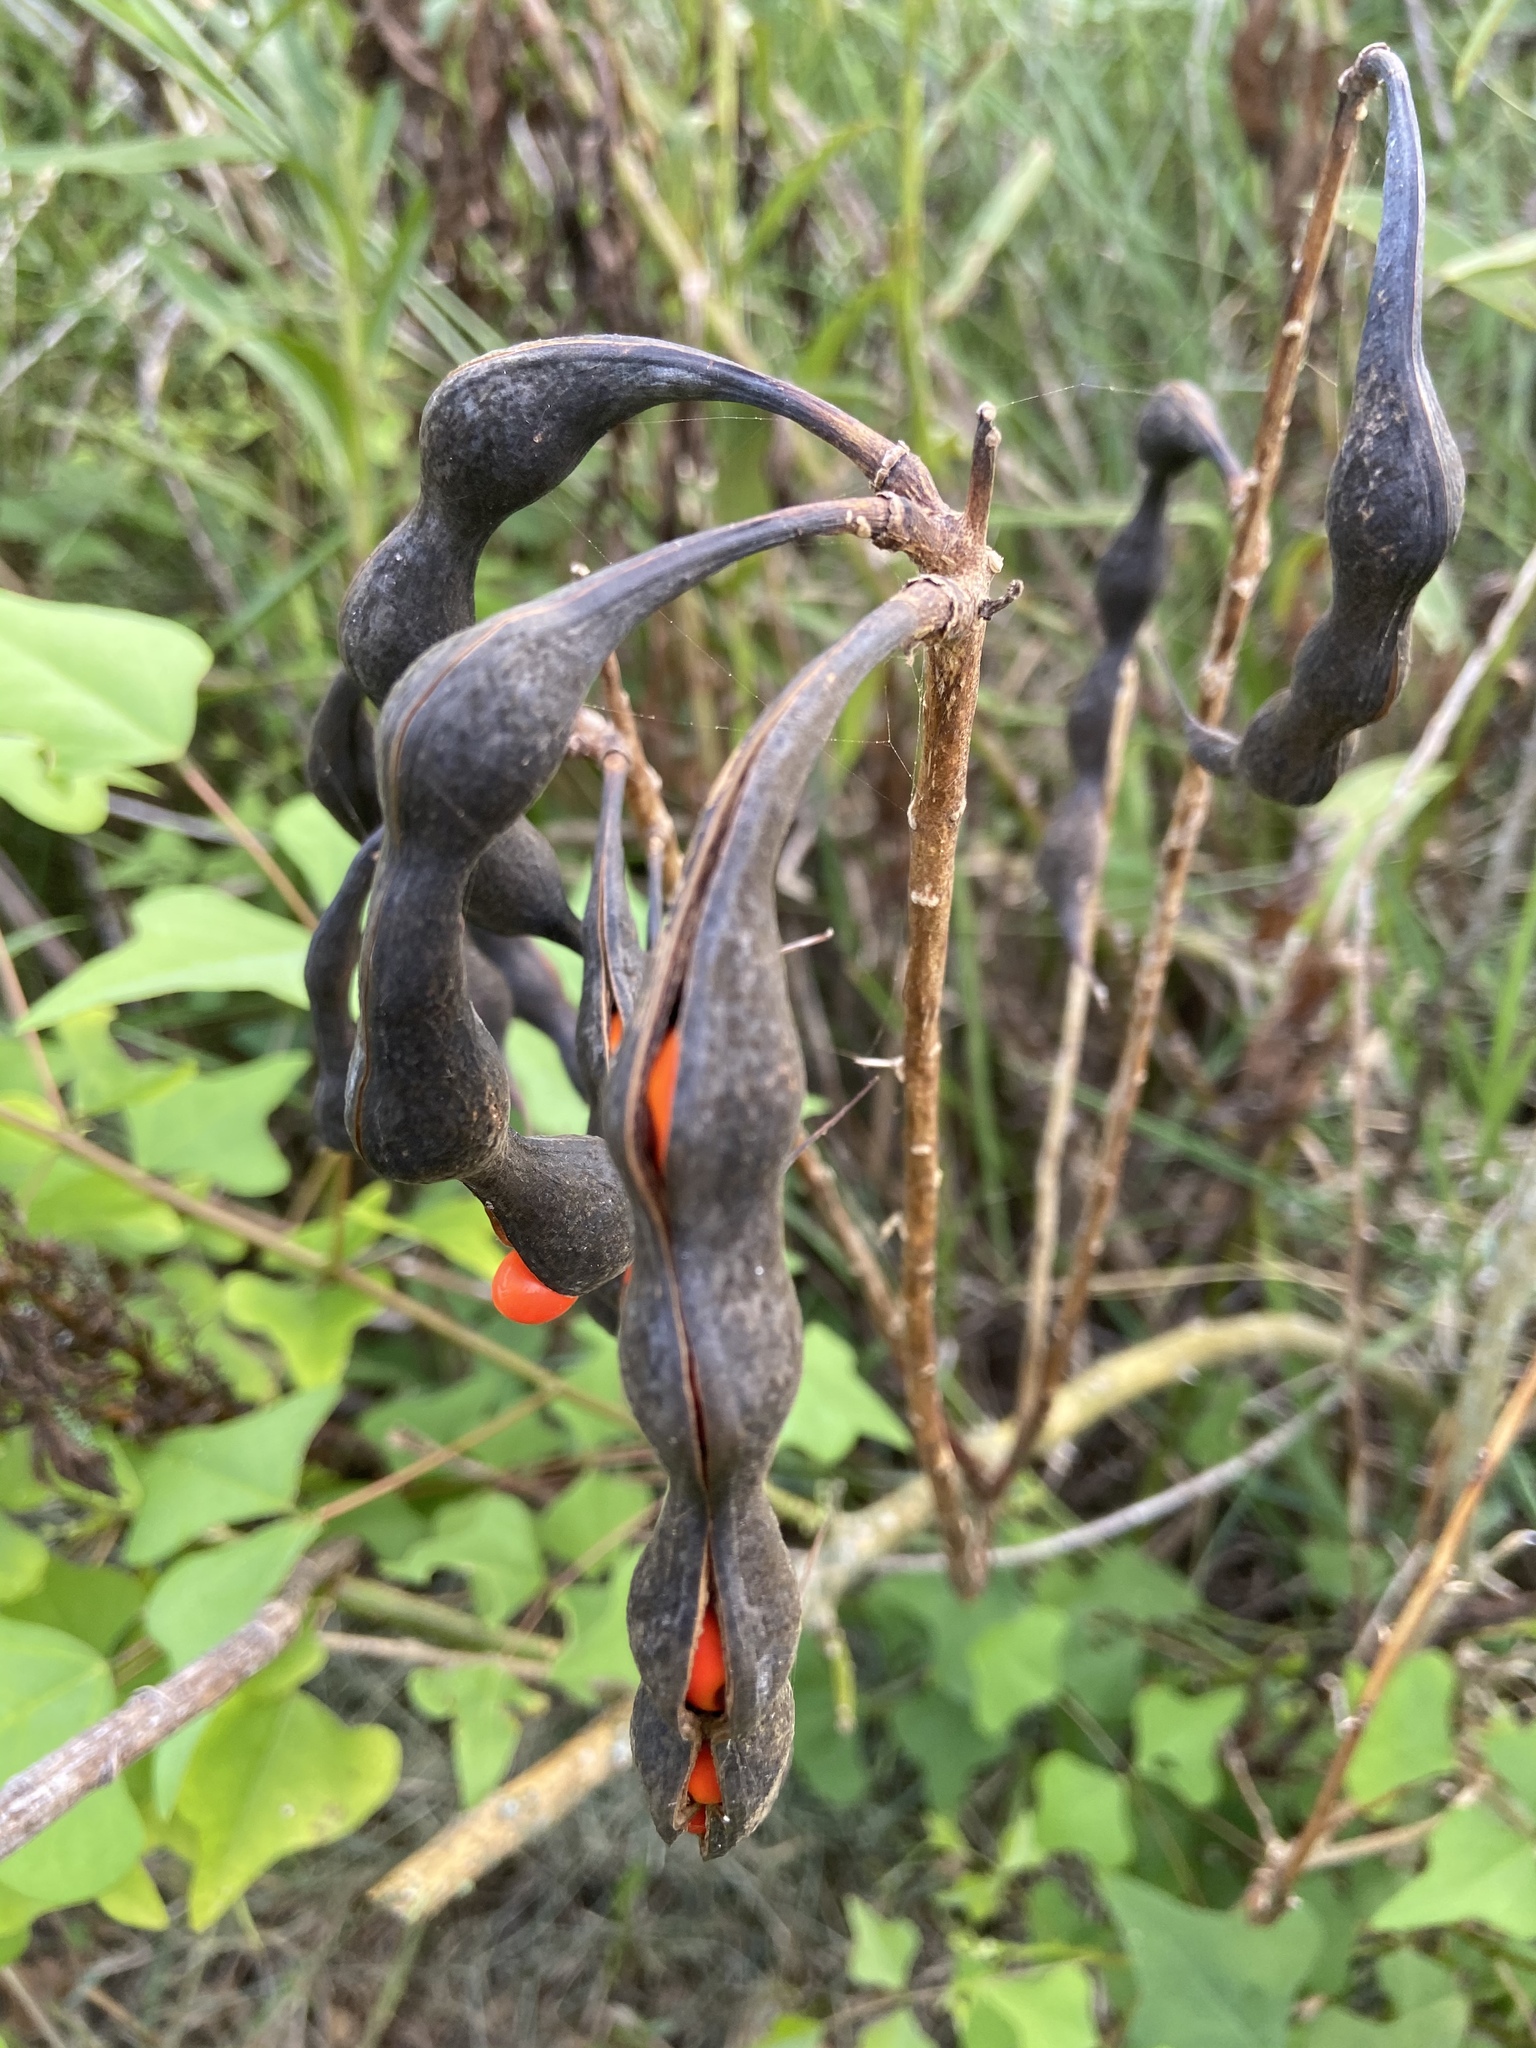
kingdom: Plantae
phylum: Tracheophyta
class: Magnoliopsida
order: Fabales
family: Fabaceae
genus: Erythrina
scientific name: Erythrina herbacea
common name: Coral-bean
